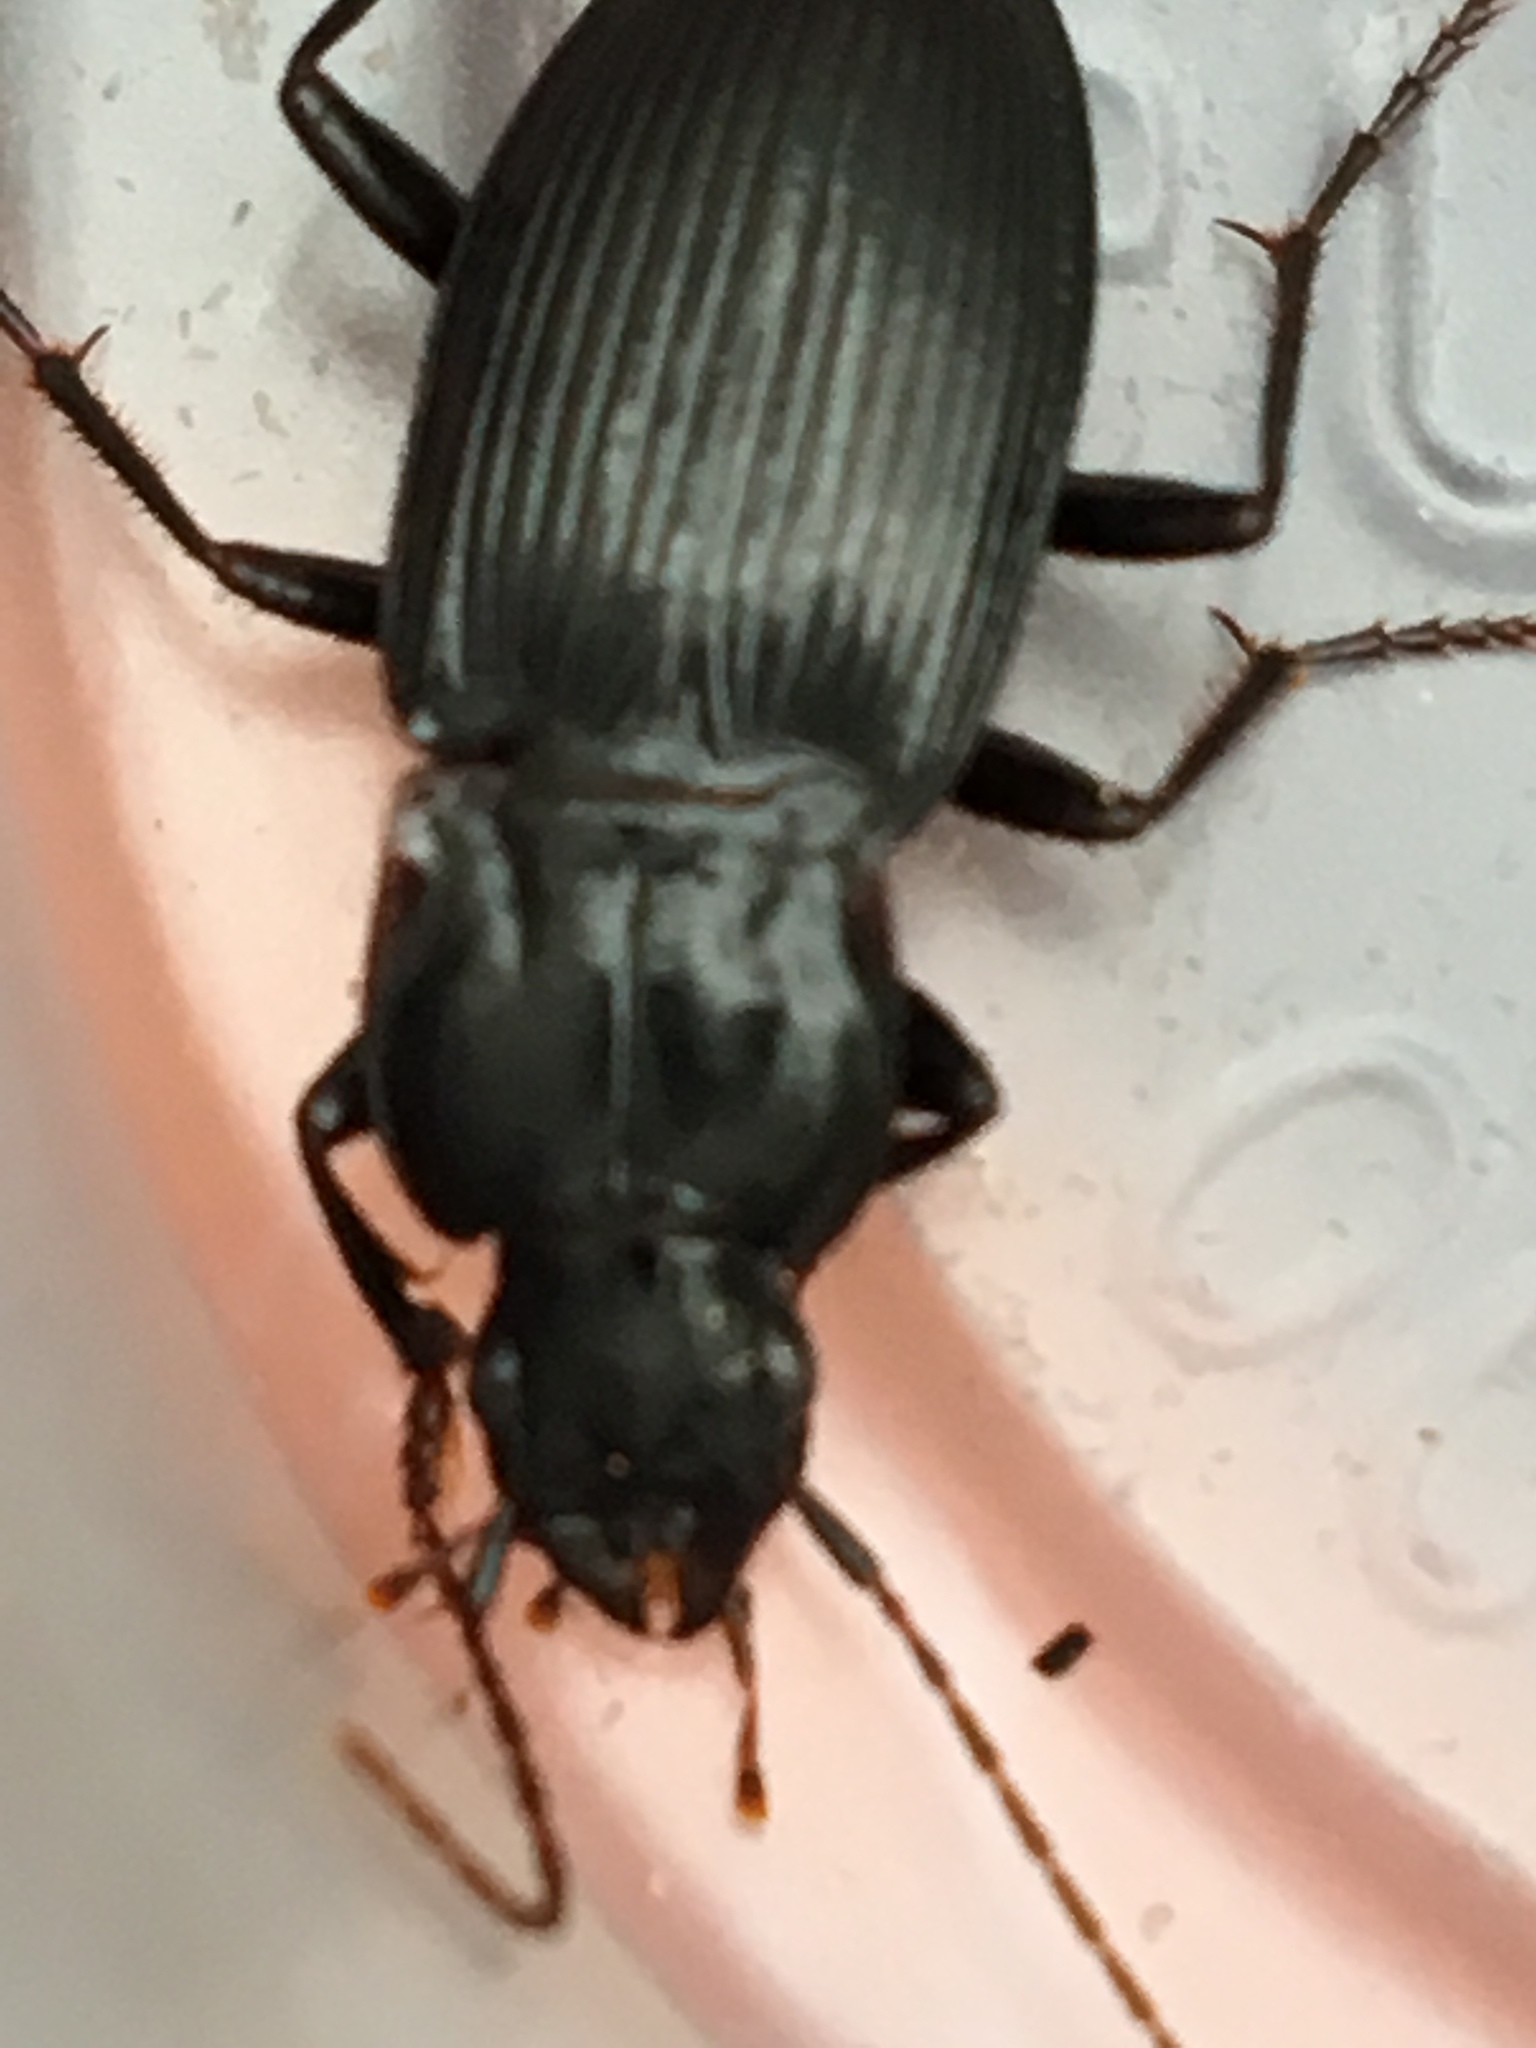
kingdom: Animalia
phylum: Arthropoda
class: Insecta
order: Coleoptera
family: Carabidae
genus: Dicaelus
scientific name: Dicaelus politus
